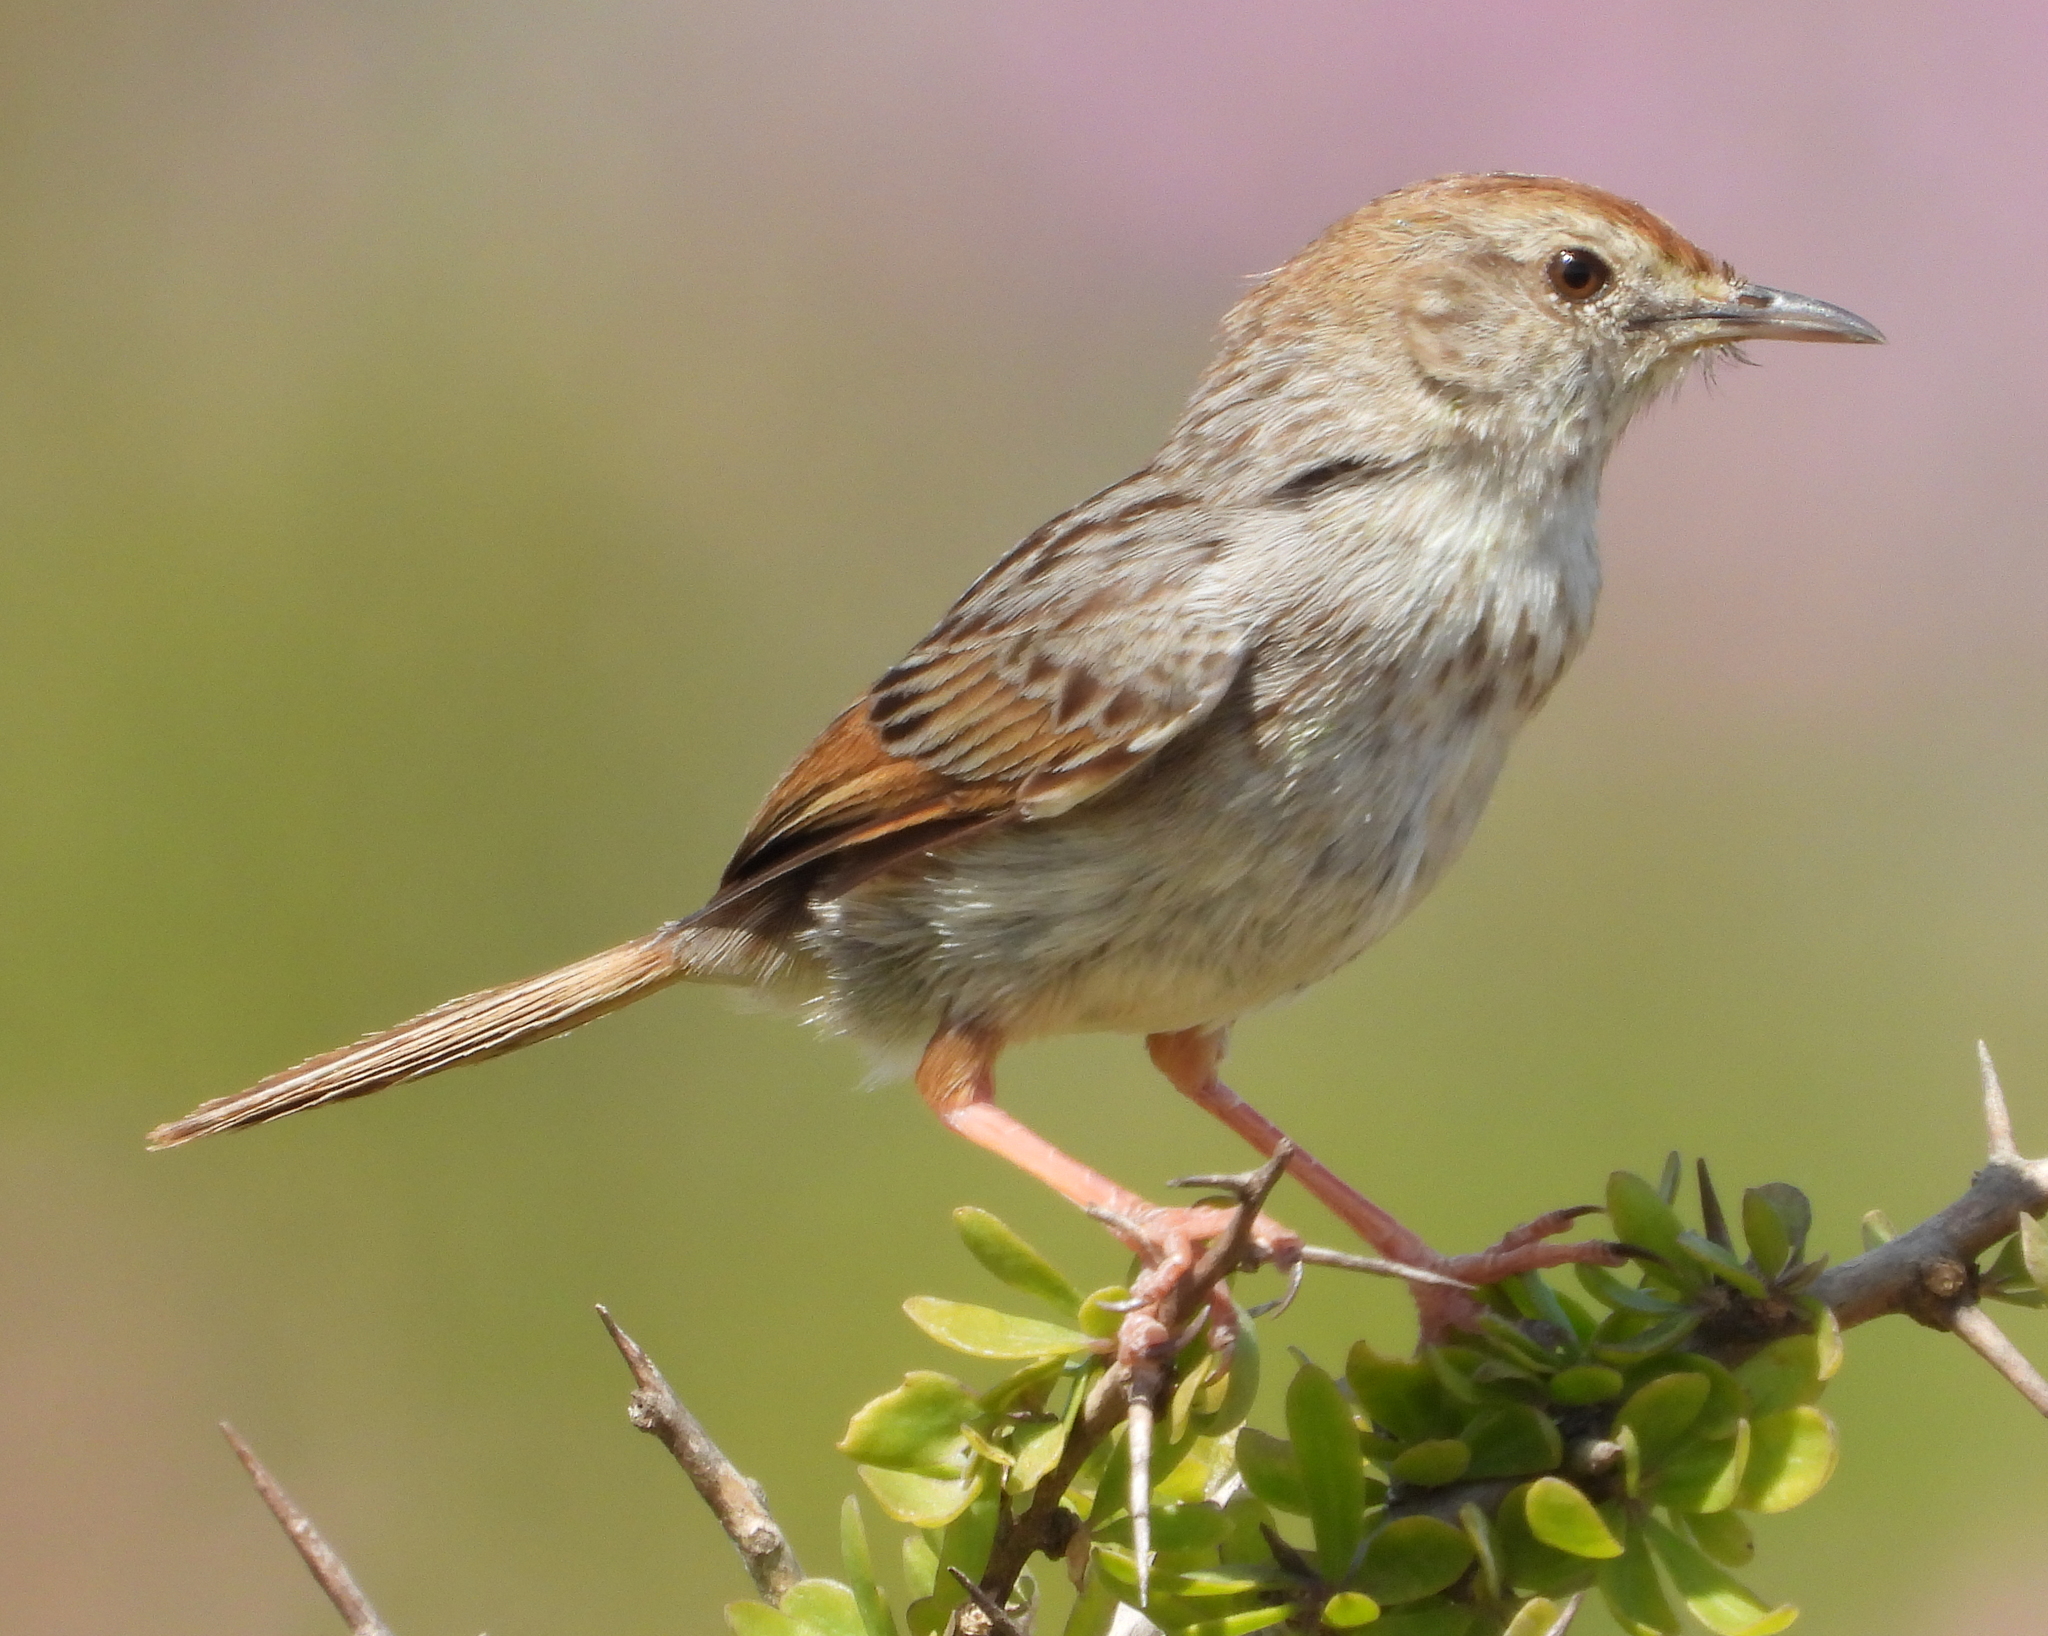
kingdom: Animalia
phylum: Chordata
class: Aves
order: Passeriformes
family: Cisticolidae
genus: Cisticola
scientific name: Cisticola subruficapilla
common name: Grey-backed cisticola
